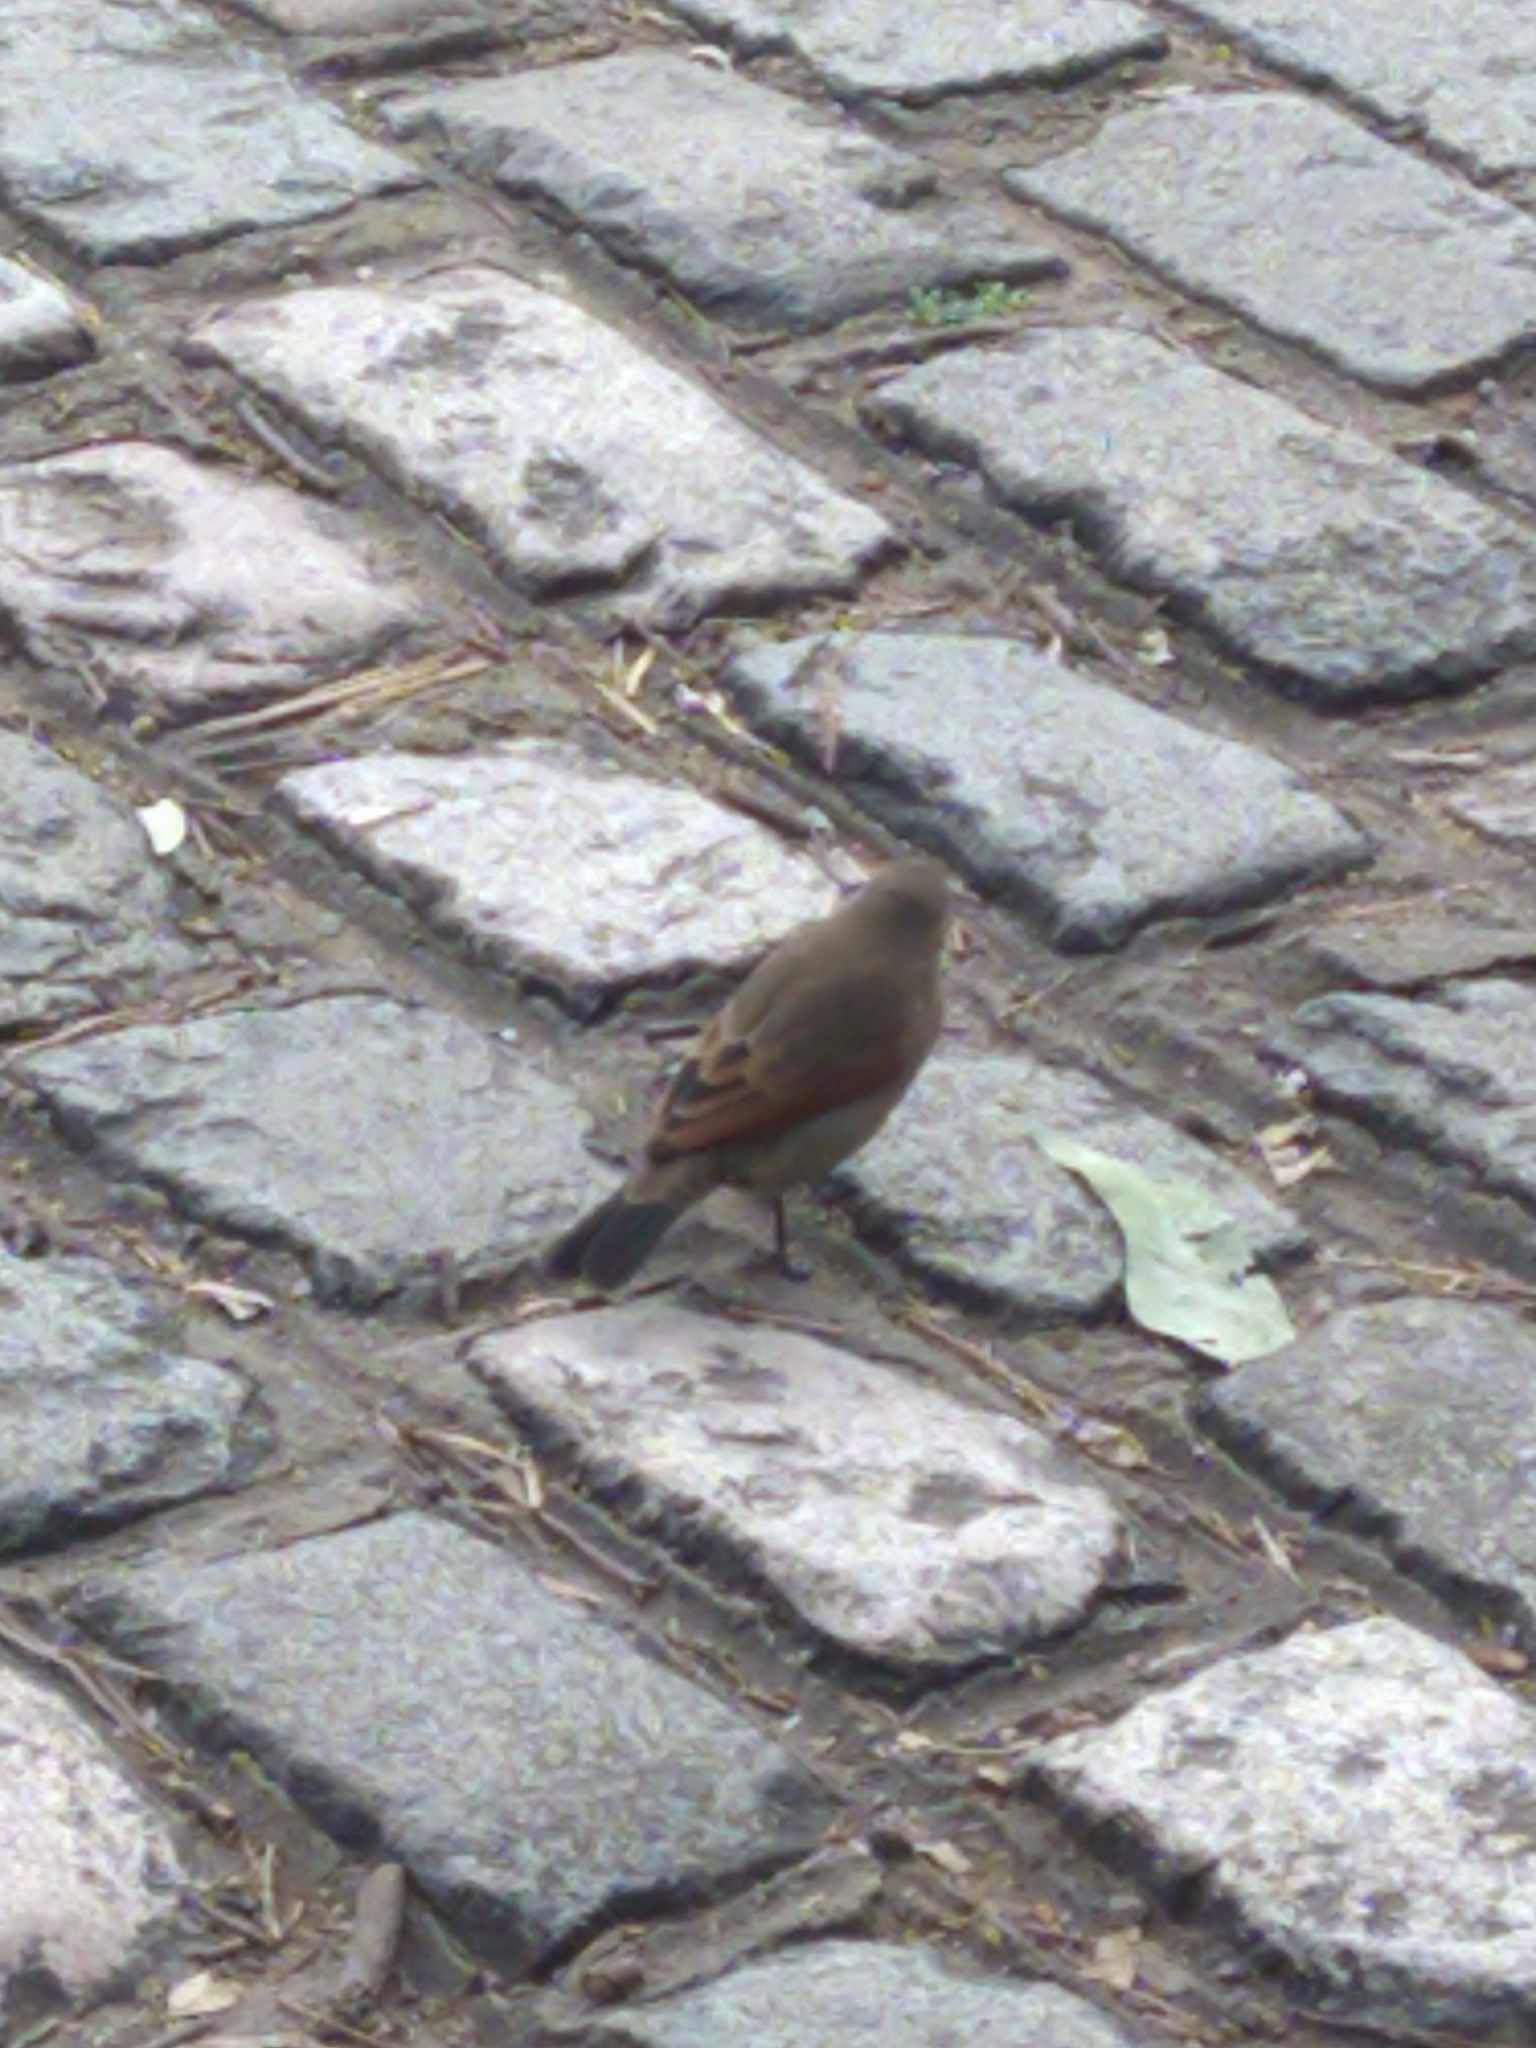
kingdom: Animalia
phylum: Chordata
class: Aves
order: Passeriformes
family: Icteridae
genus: Agelaioides
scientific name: Agelaioides badius
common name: Baywing
